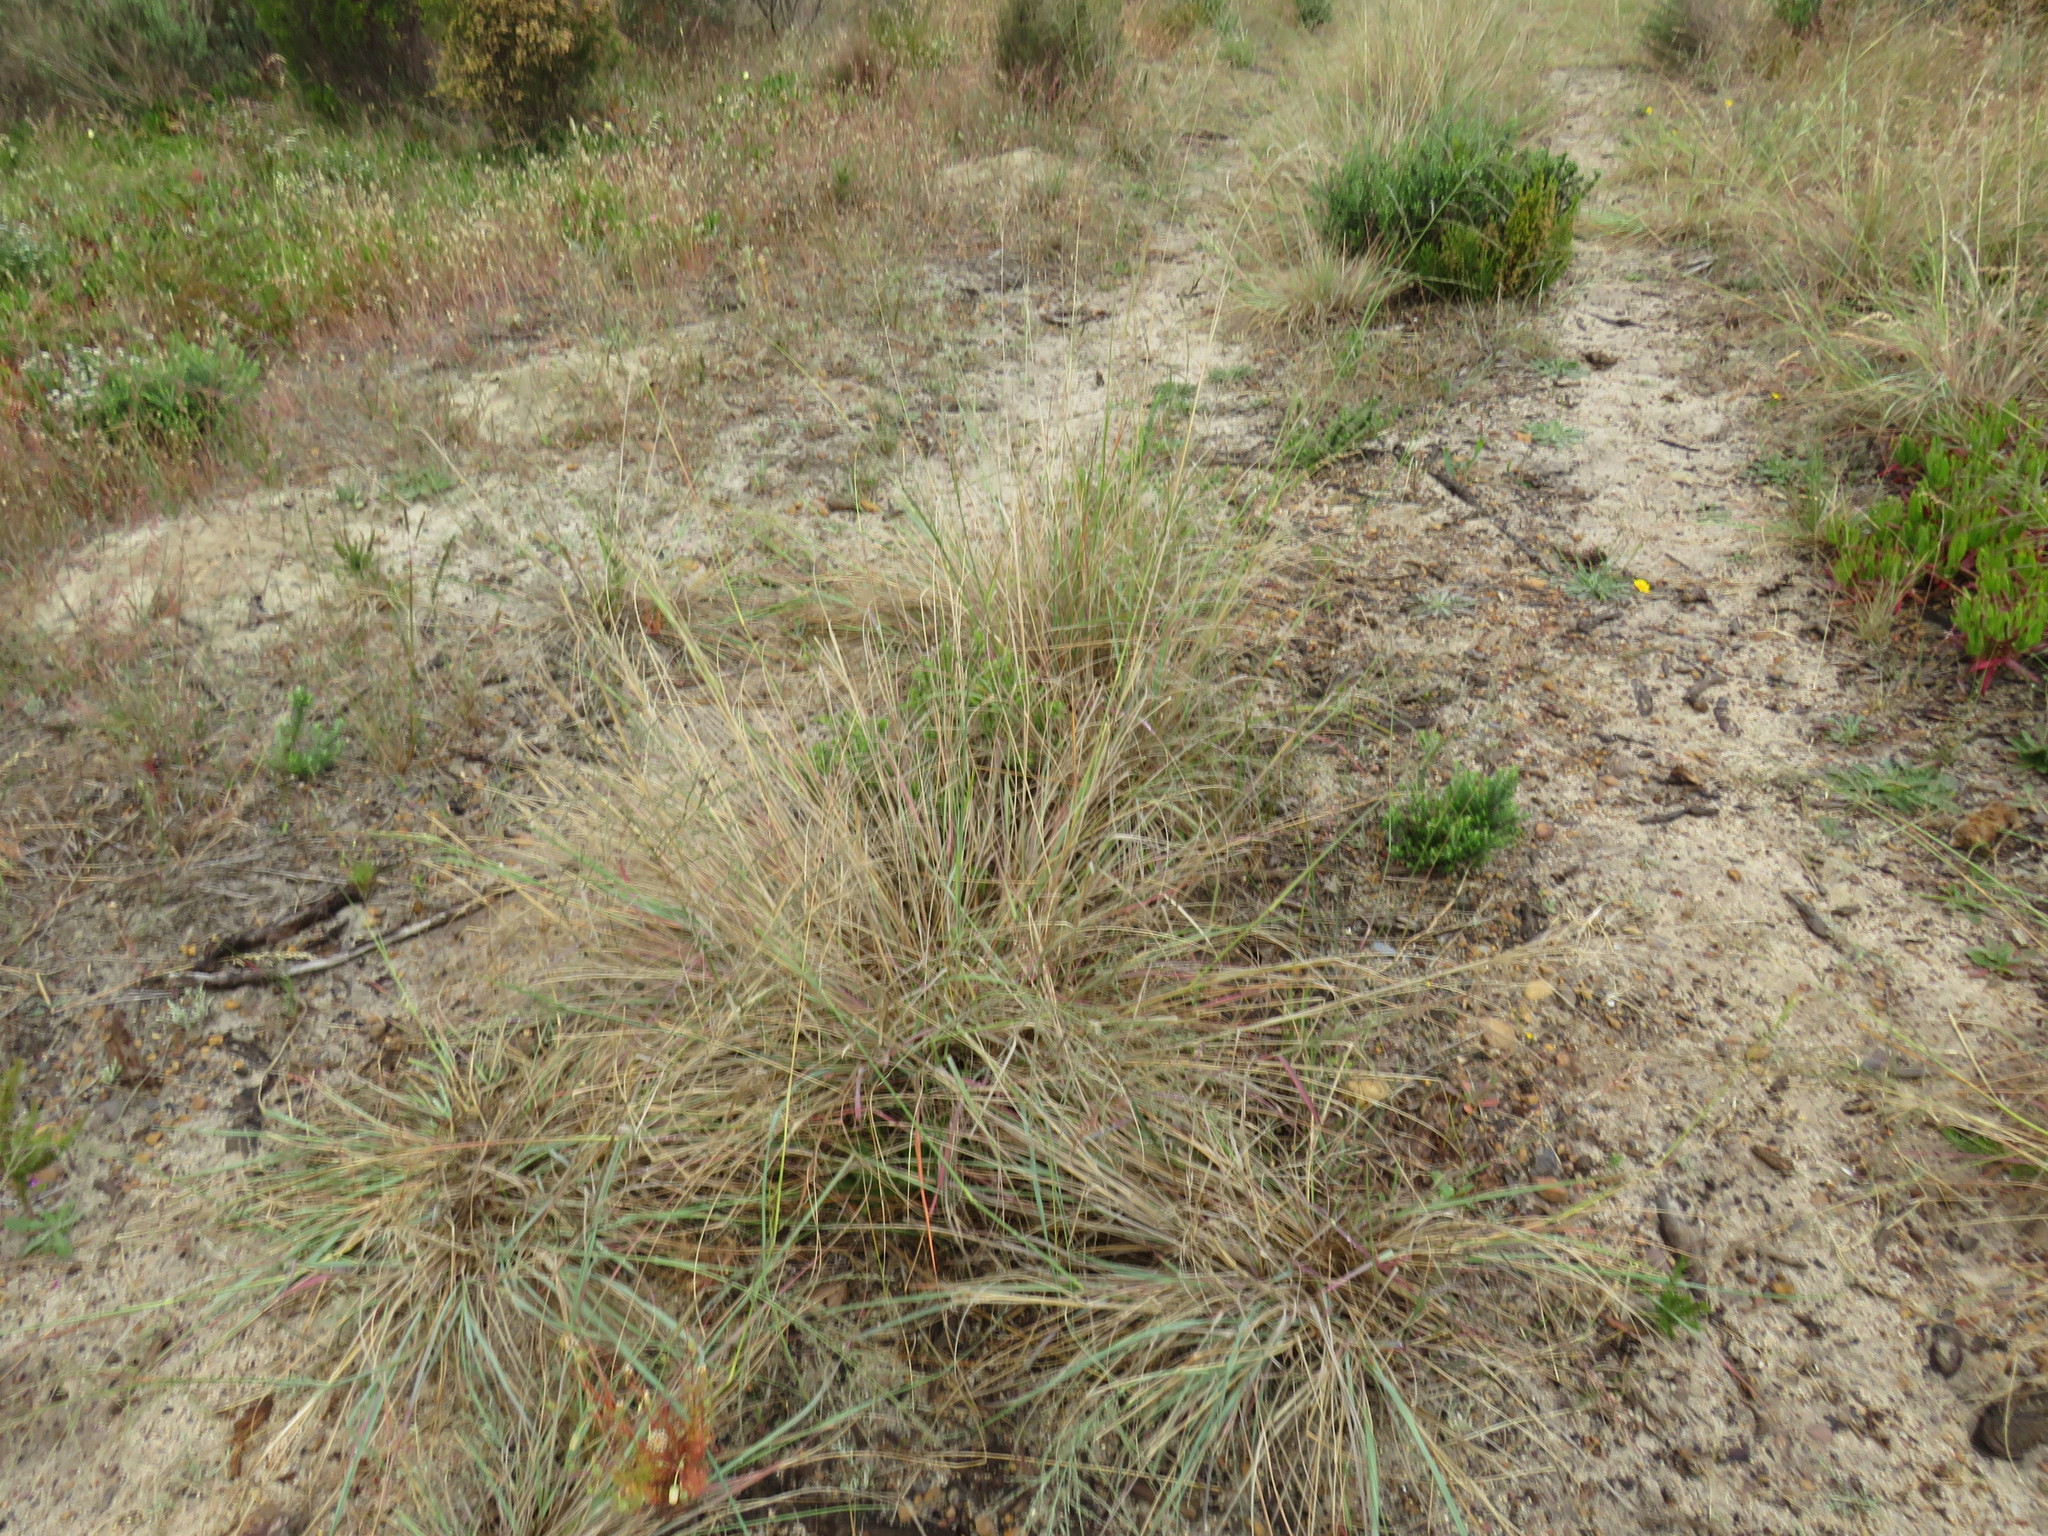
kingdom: Plantae
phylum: Tracheophyta
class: Liliopsida
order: Poales
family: Poaceae
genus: Eragrostis
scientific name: Eragrostis curvula
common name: African love-grass
